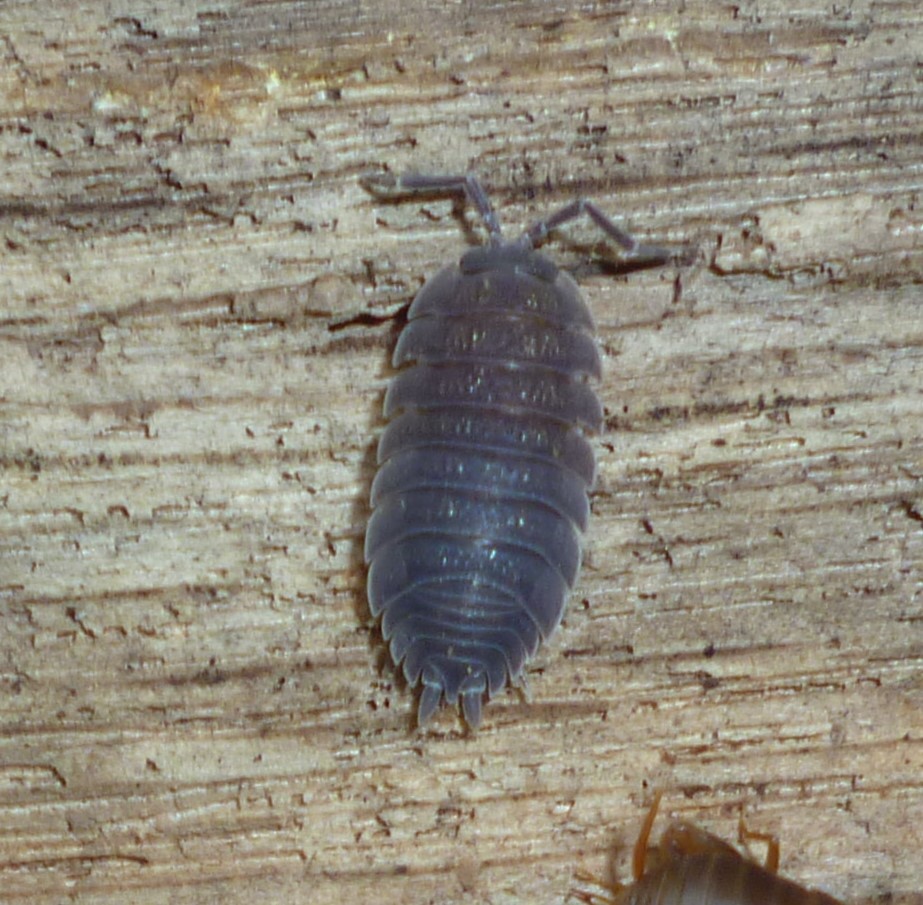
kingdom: Animalia
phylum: Arthropoda
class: Malacostraca
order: Isopoda
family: Porcellionidae
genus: Porcellio
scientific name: Porcellio scaber
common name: Common rough woodlouse
